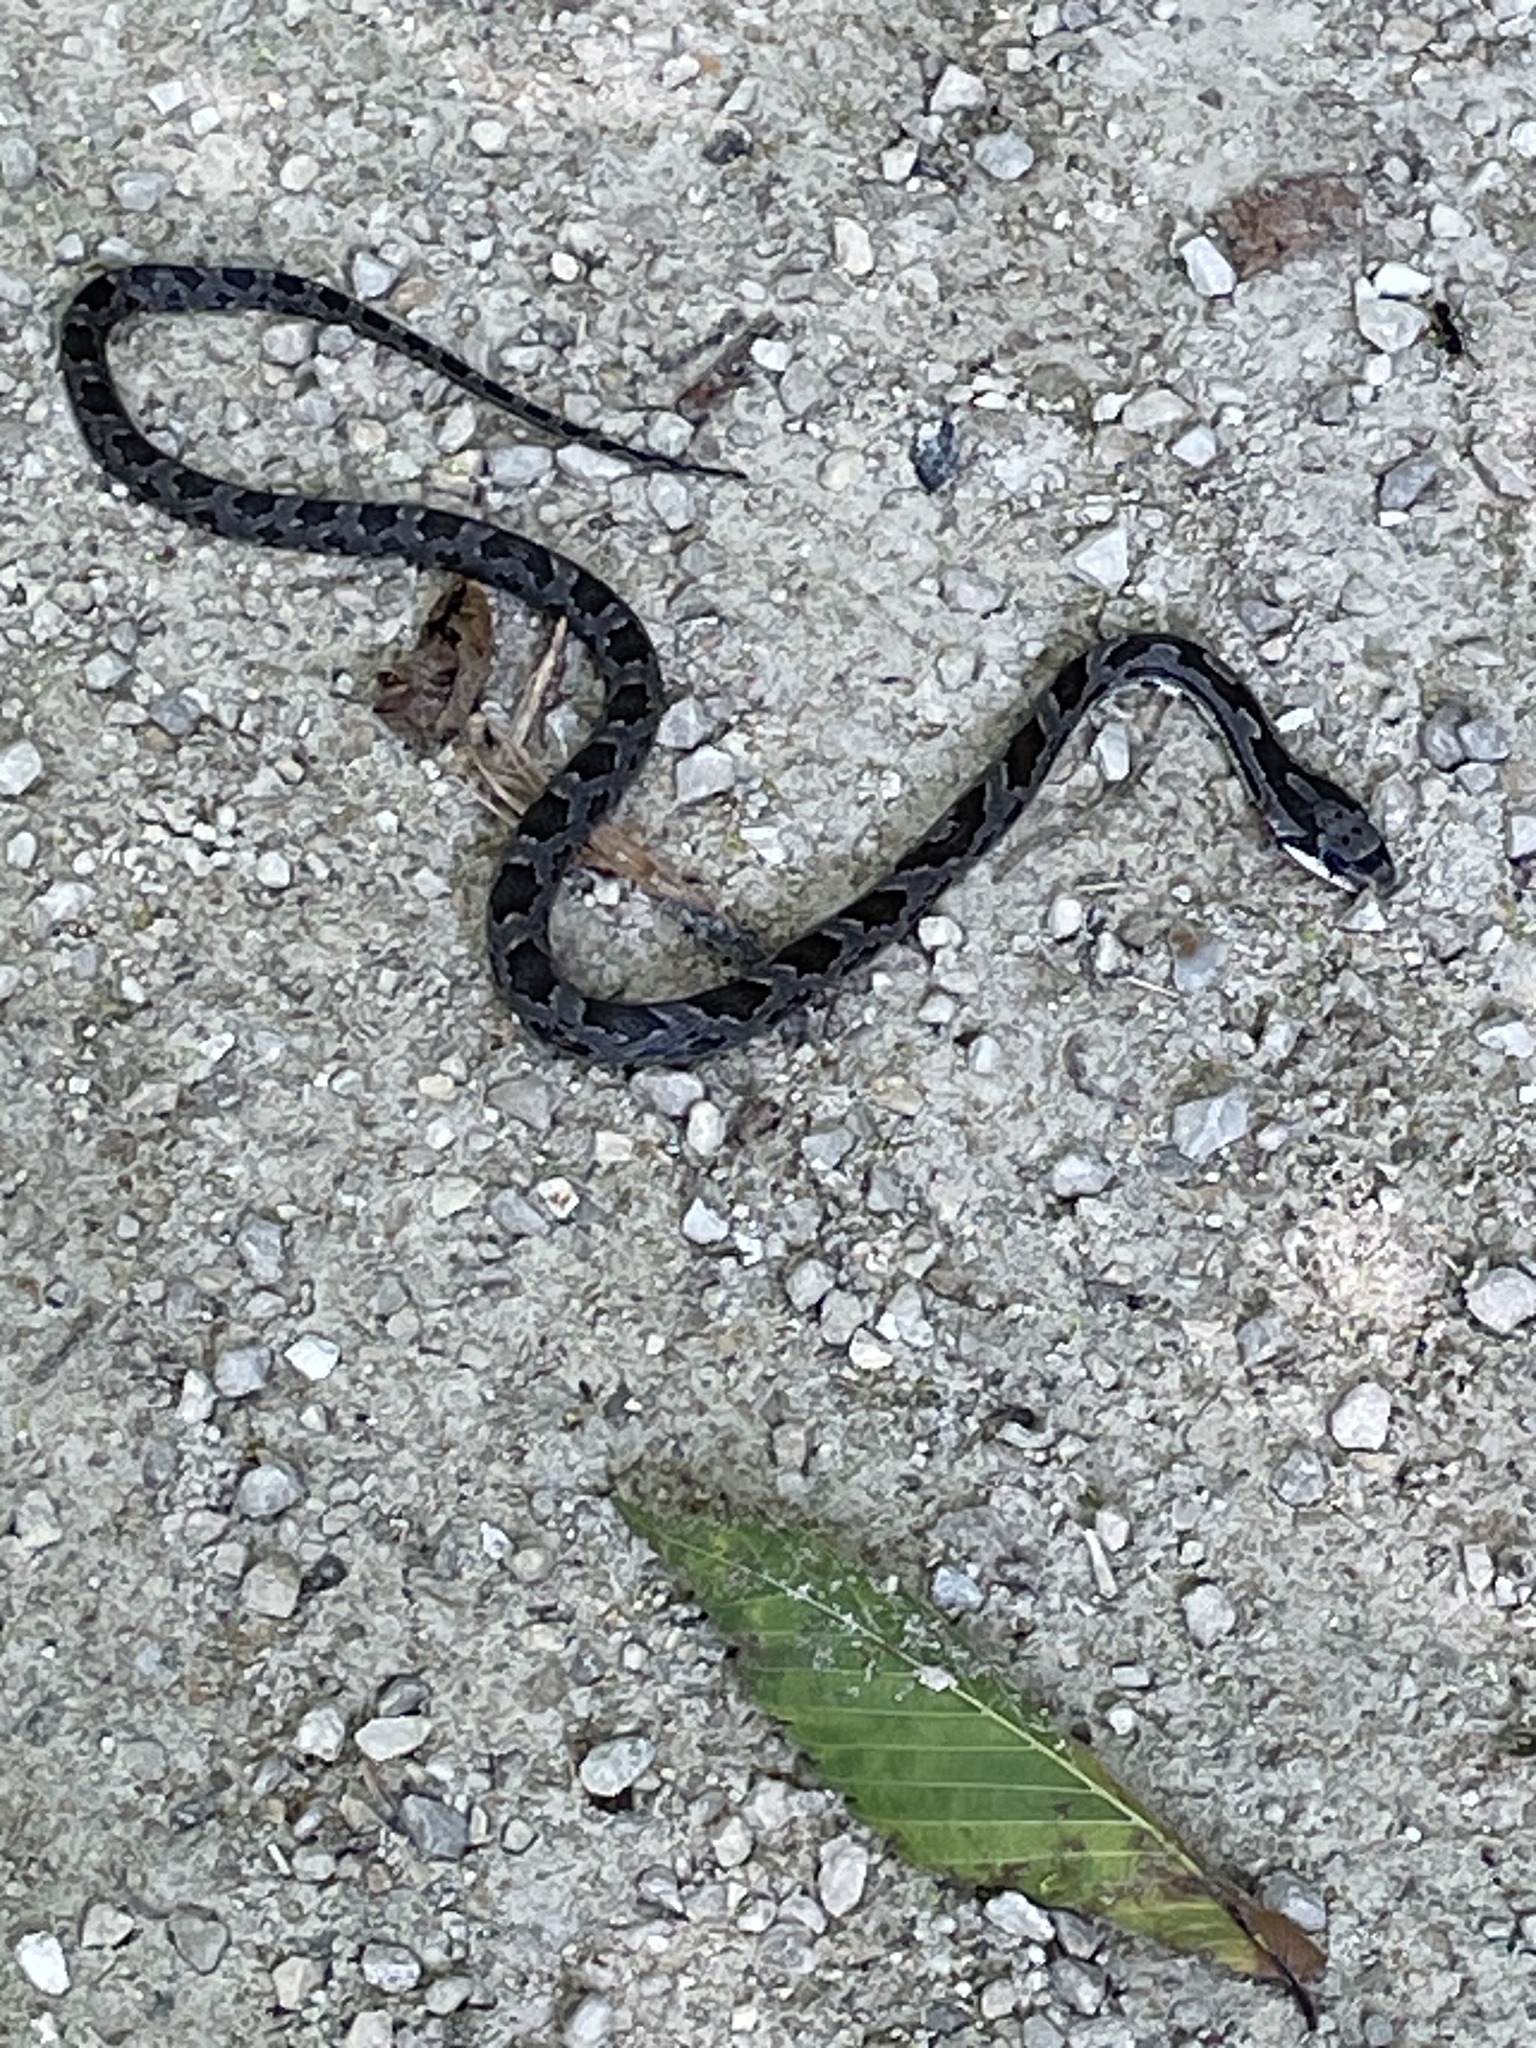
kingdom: Animalia
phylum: Chordata
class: Squamata
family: Colubridae
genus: Pantherophis
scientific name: Pantherophis obsoletus
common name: Black rat snake
